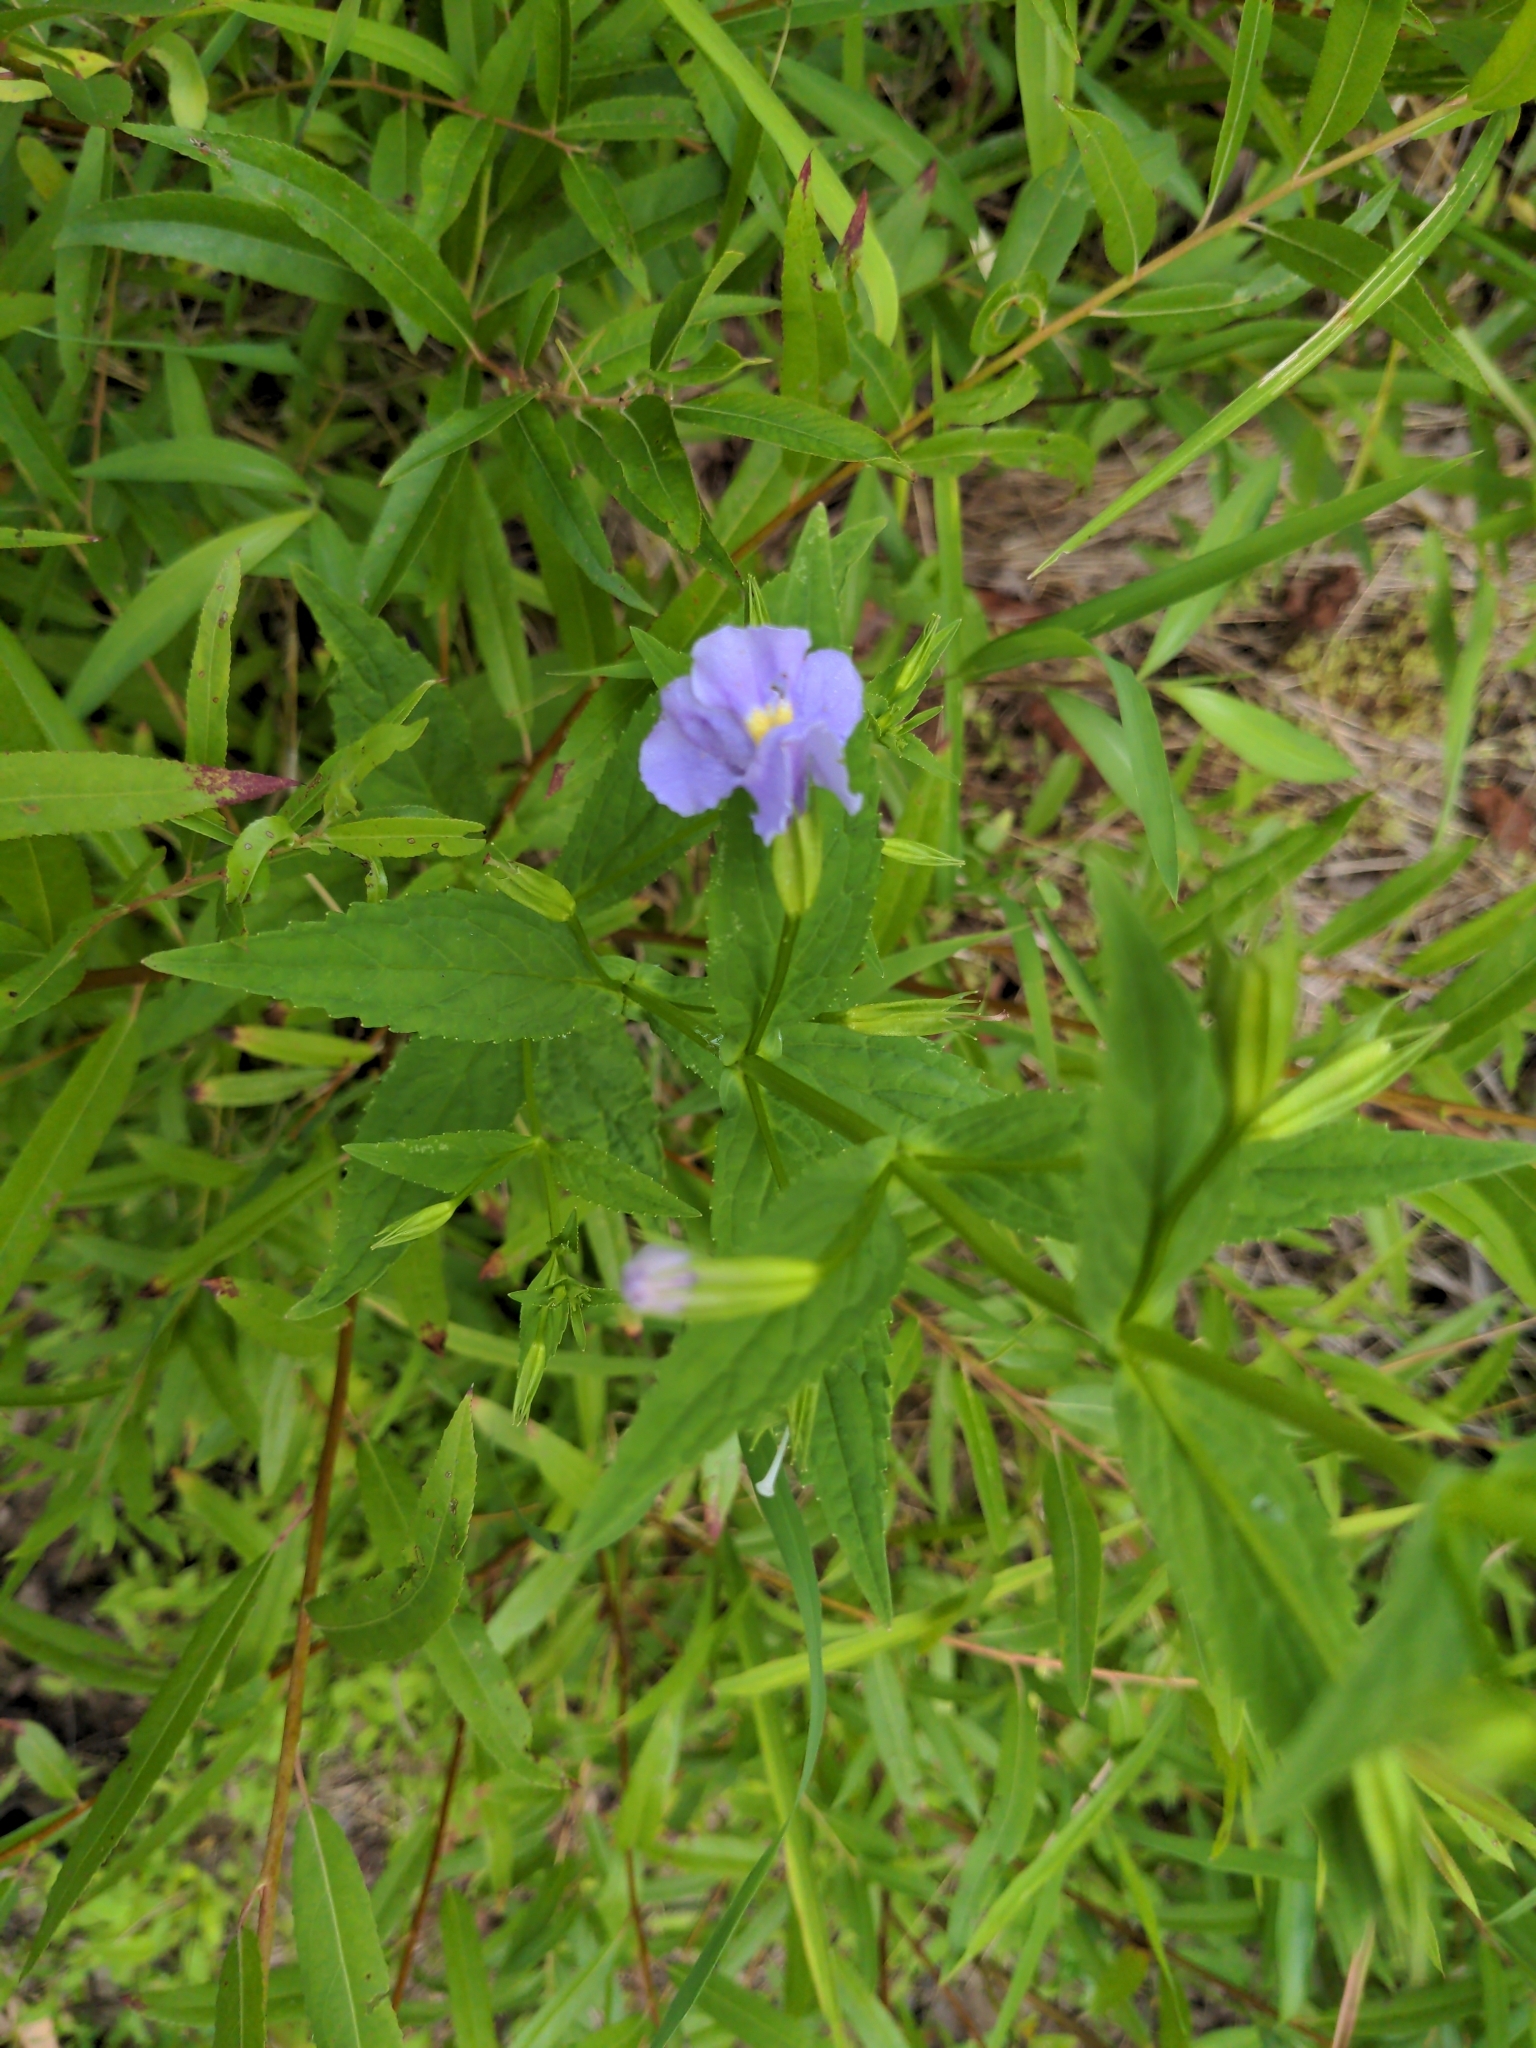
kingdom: Plantae
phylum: Tracheophyta
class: Magnoliopsida
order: Lamiales
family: Phrymaceae
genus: Mimulus
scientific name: Mimulus ringens
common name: Allegheny monkeyflower
